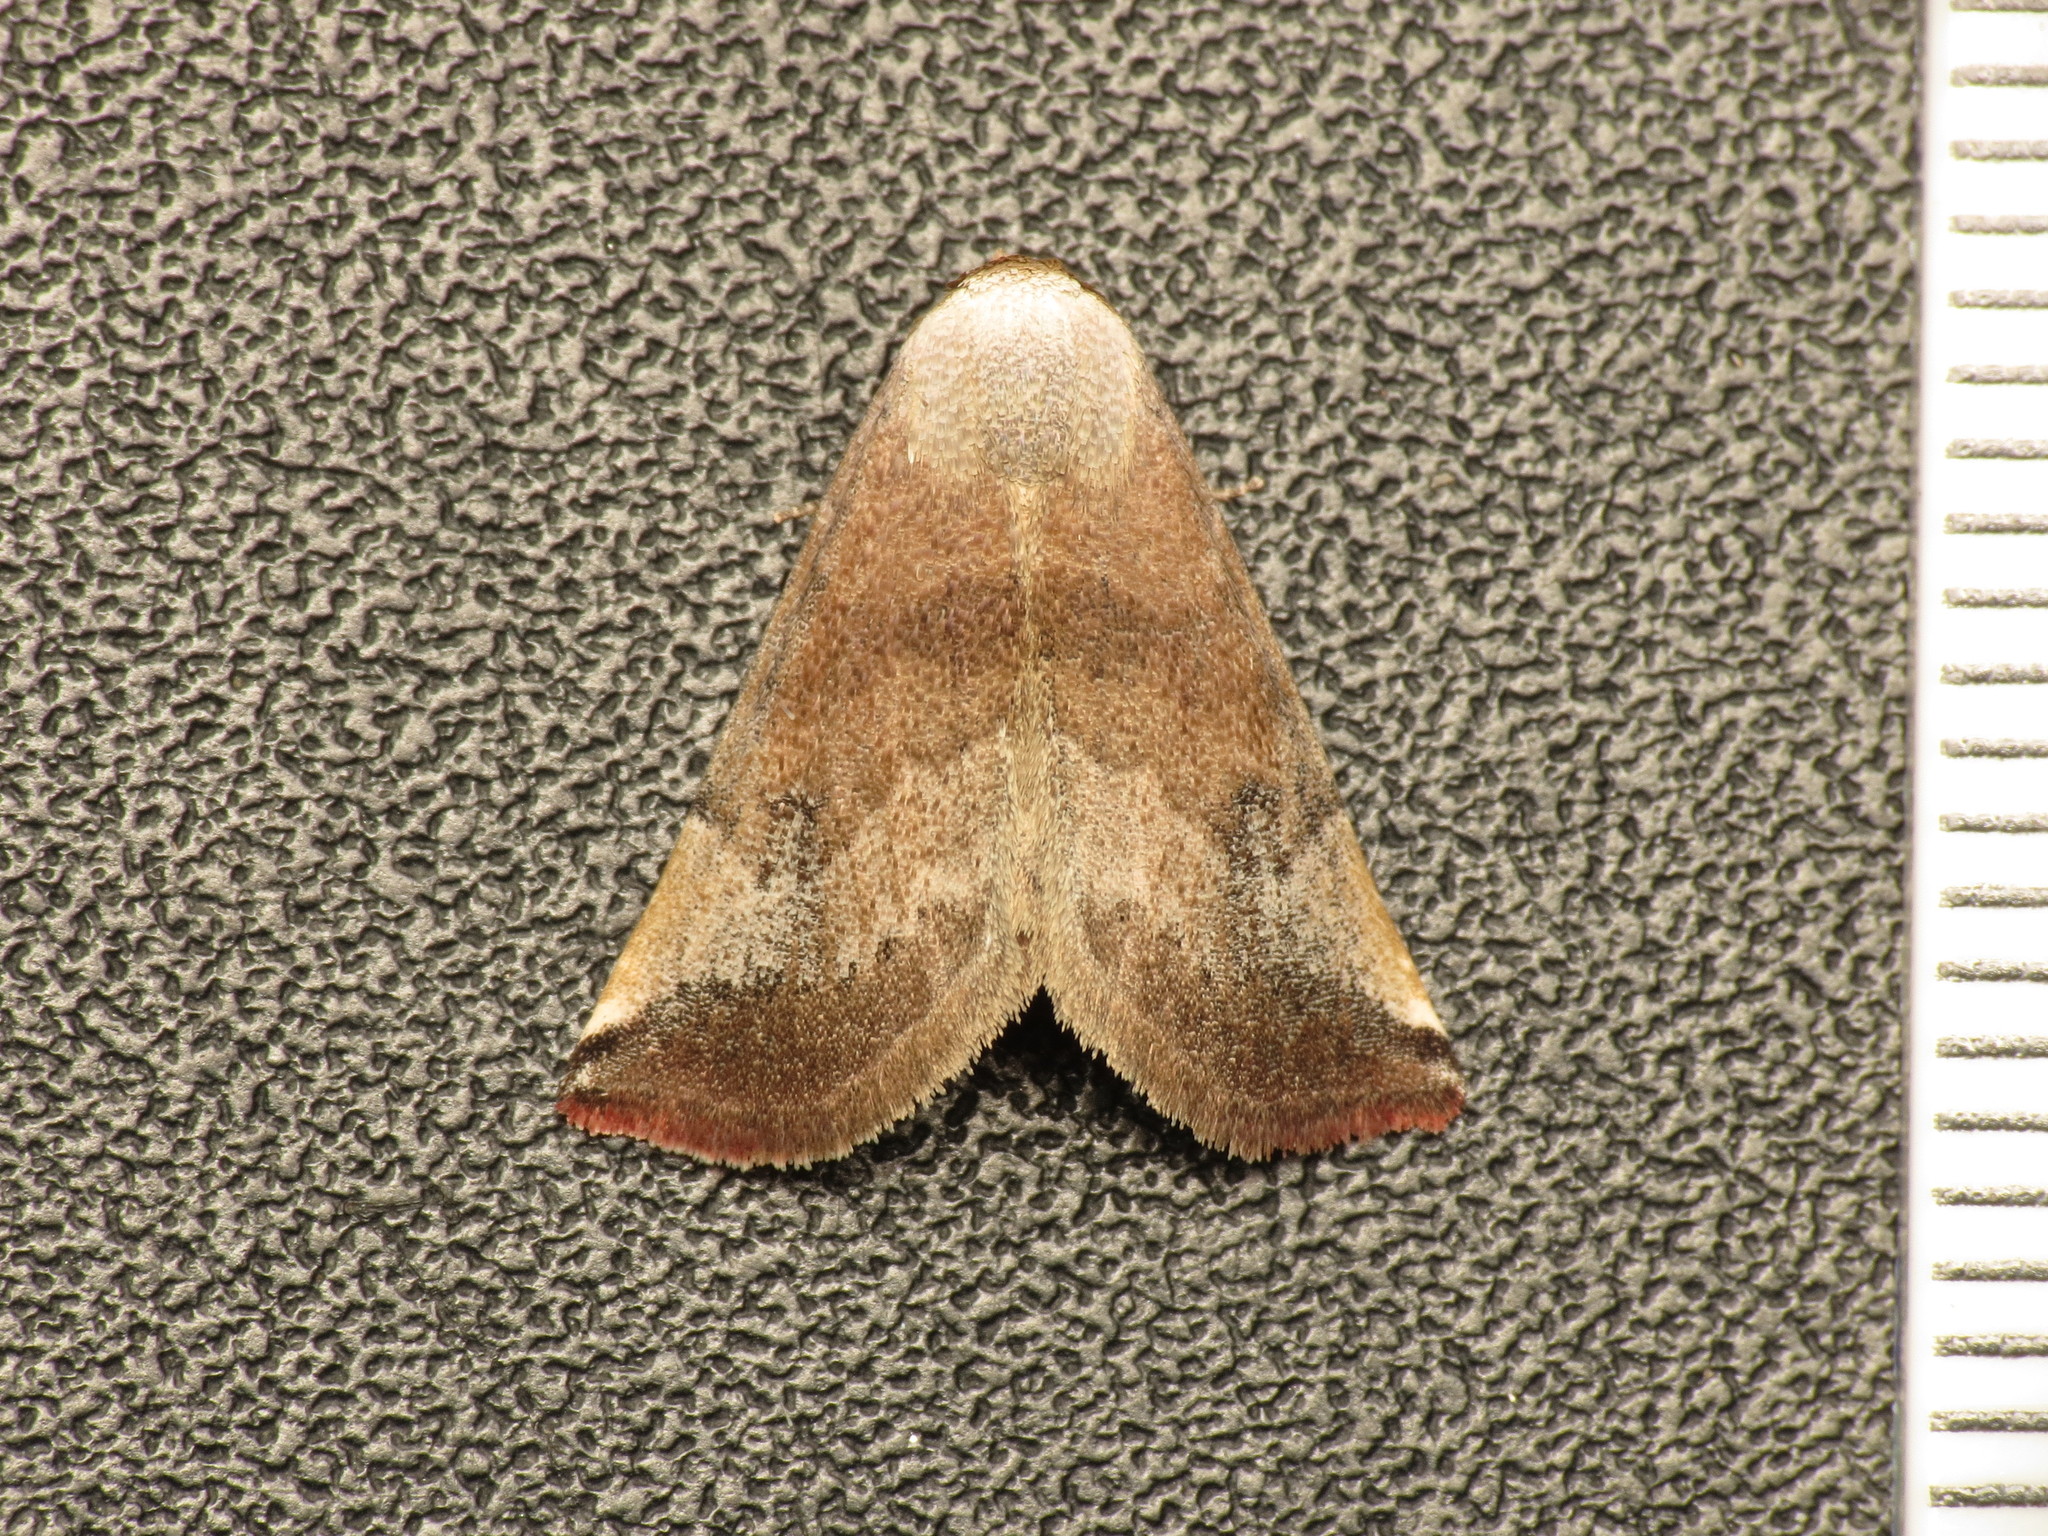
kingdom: Animalia
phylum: Arthropoda
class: Insecta
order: Lepidoptera
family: Noctuidae
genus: Mataeomera
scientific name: Mataeomera mesotaenia
